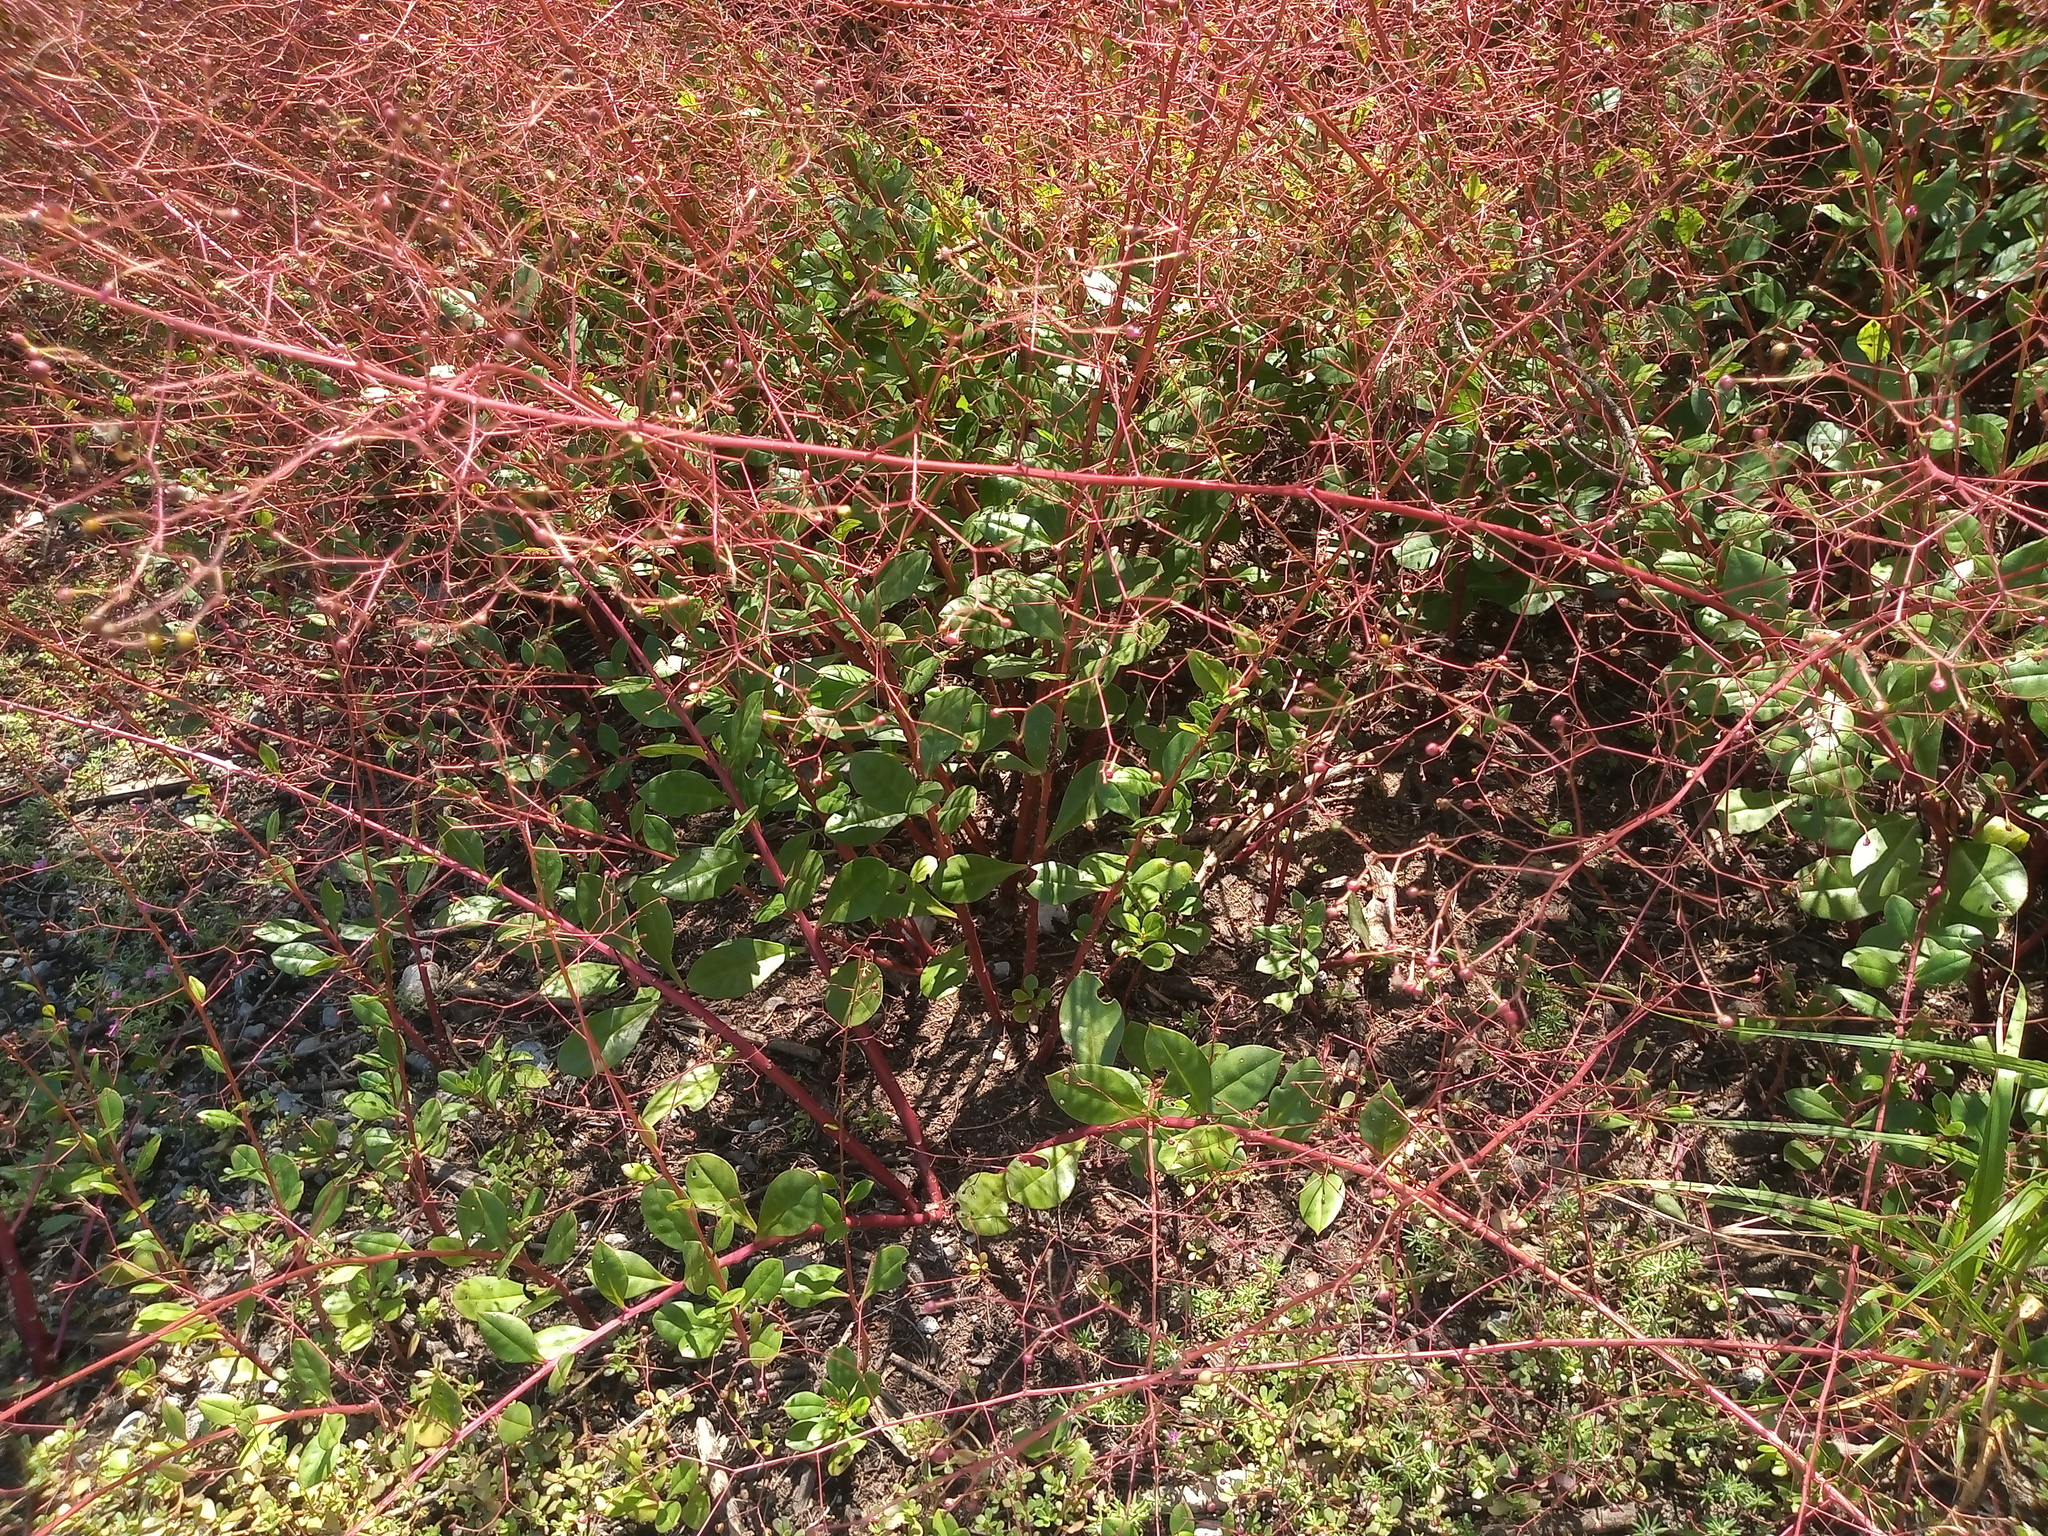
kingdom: Plantae
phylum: Tracheophyta
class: Magnoliopsida
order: Caryophyllales
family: Talinaceae
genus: Talinum
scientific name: Talinum paniculatum
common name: Jewels of opar
